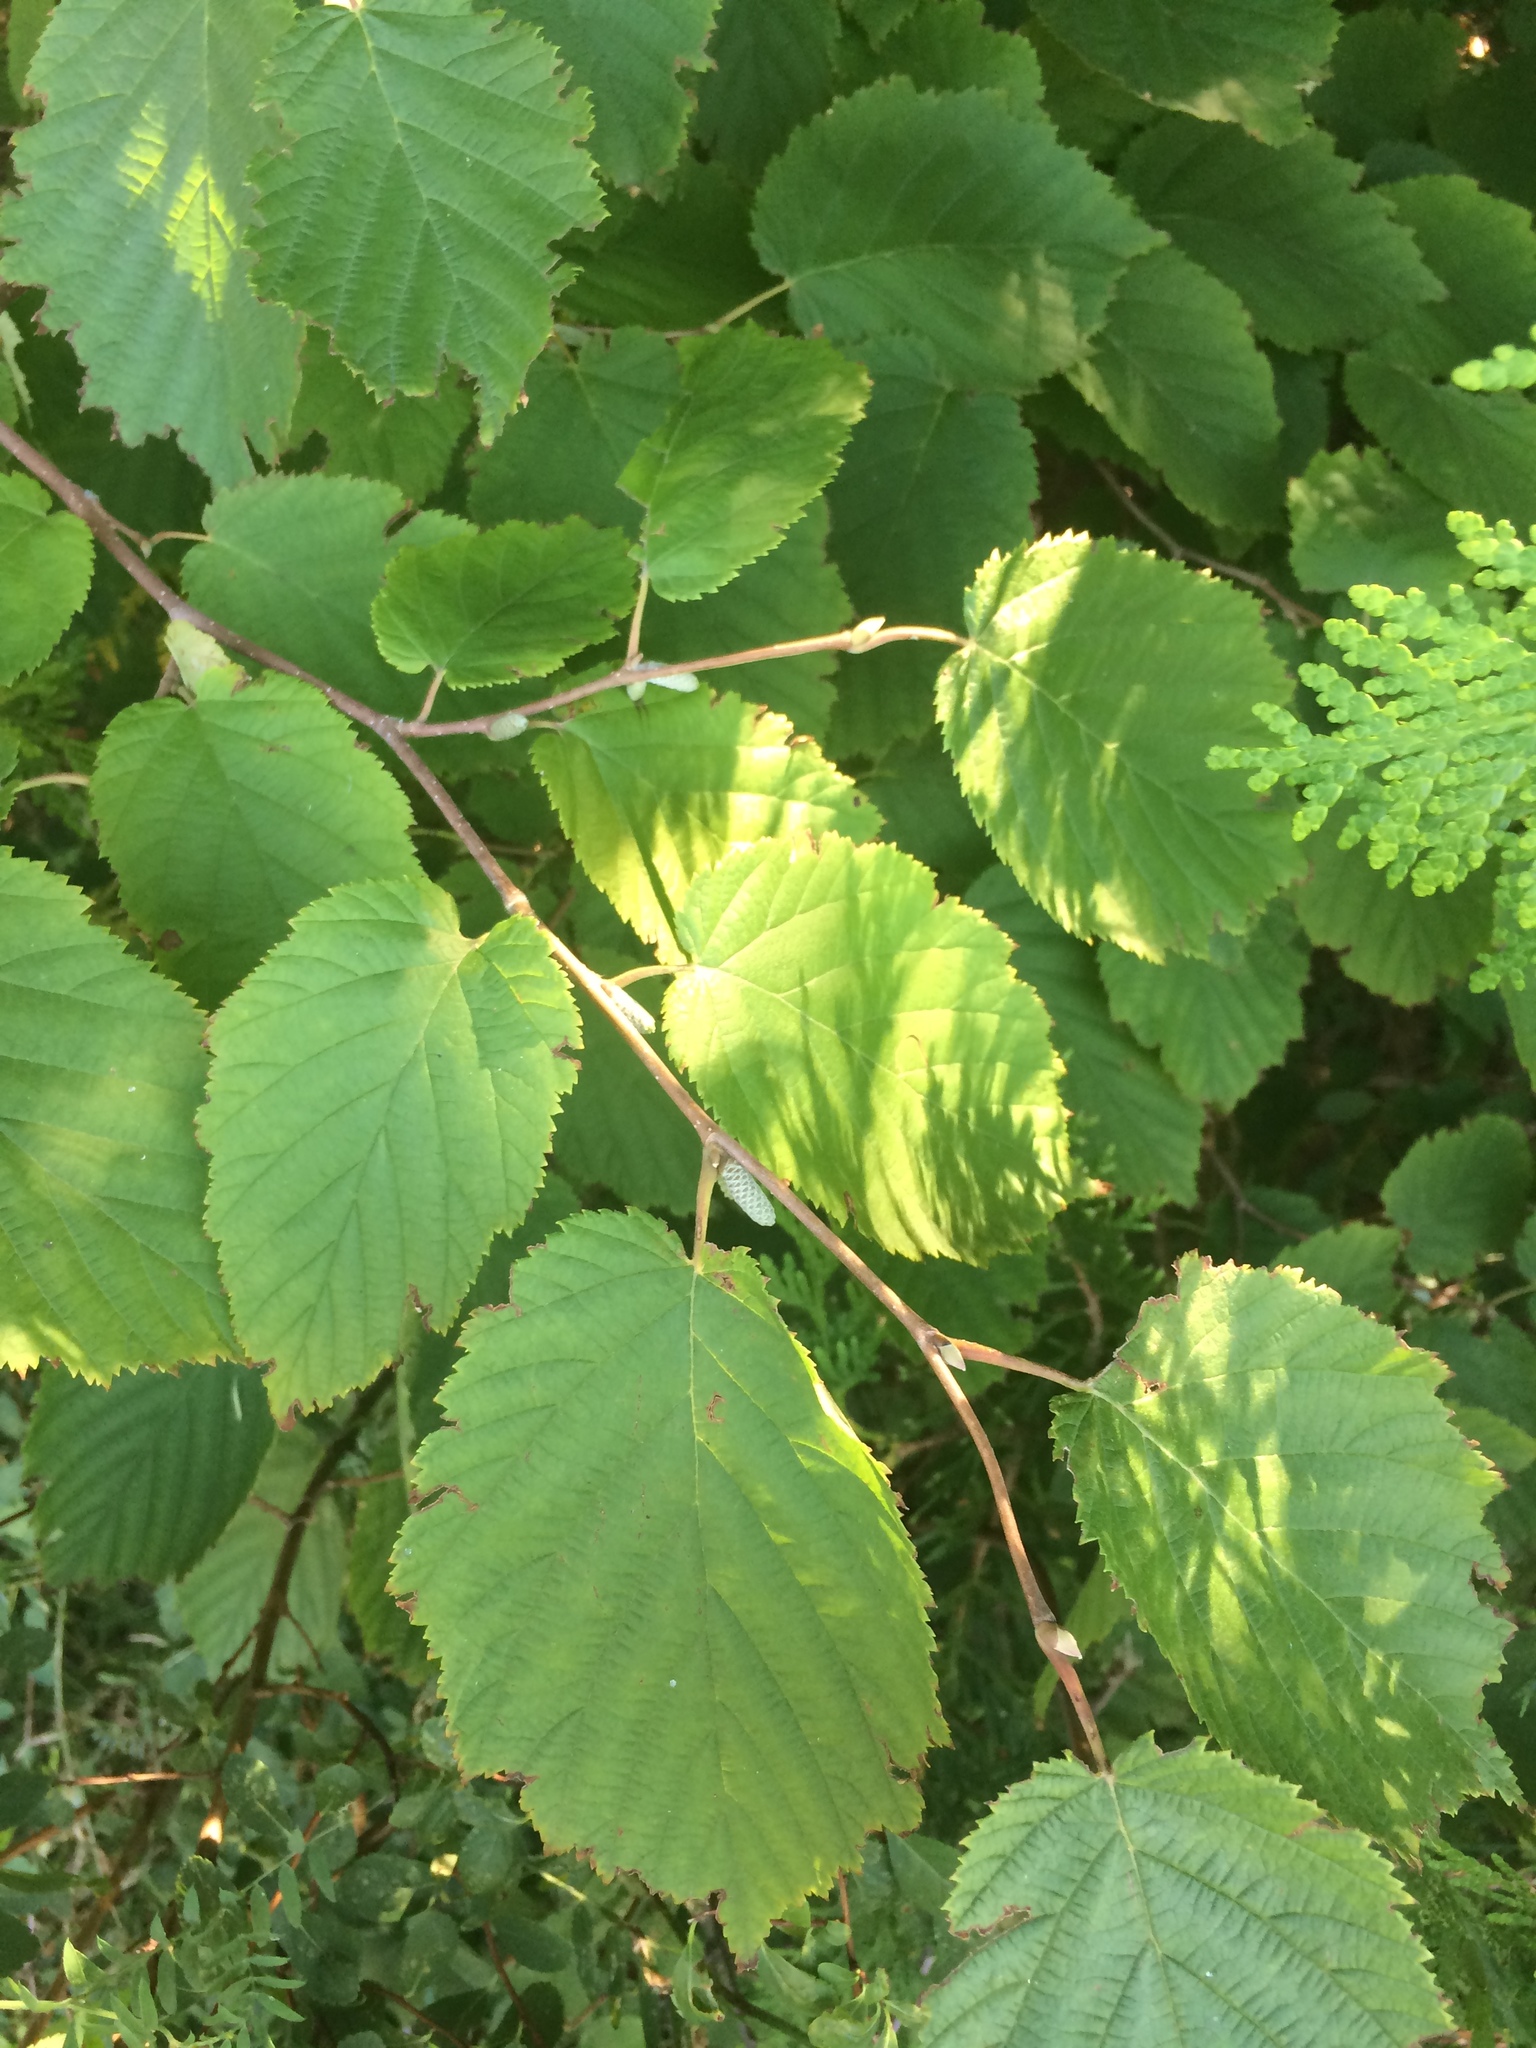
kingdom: Plantae
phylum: Tracheophyta
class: Magnoliopsida
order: Fagales
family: Betulaceae
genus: Corylus
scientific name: Corylus cornuta
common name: Beaked hazel
